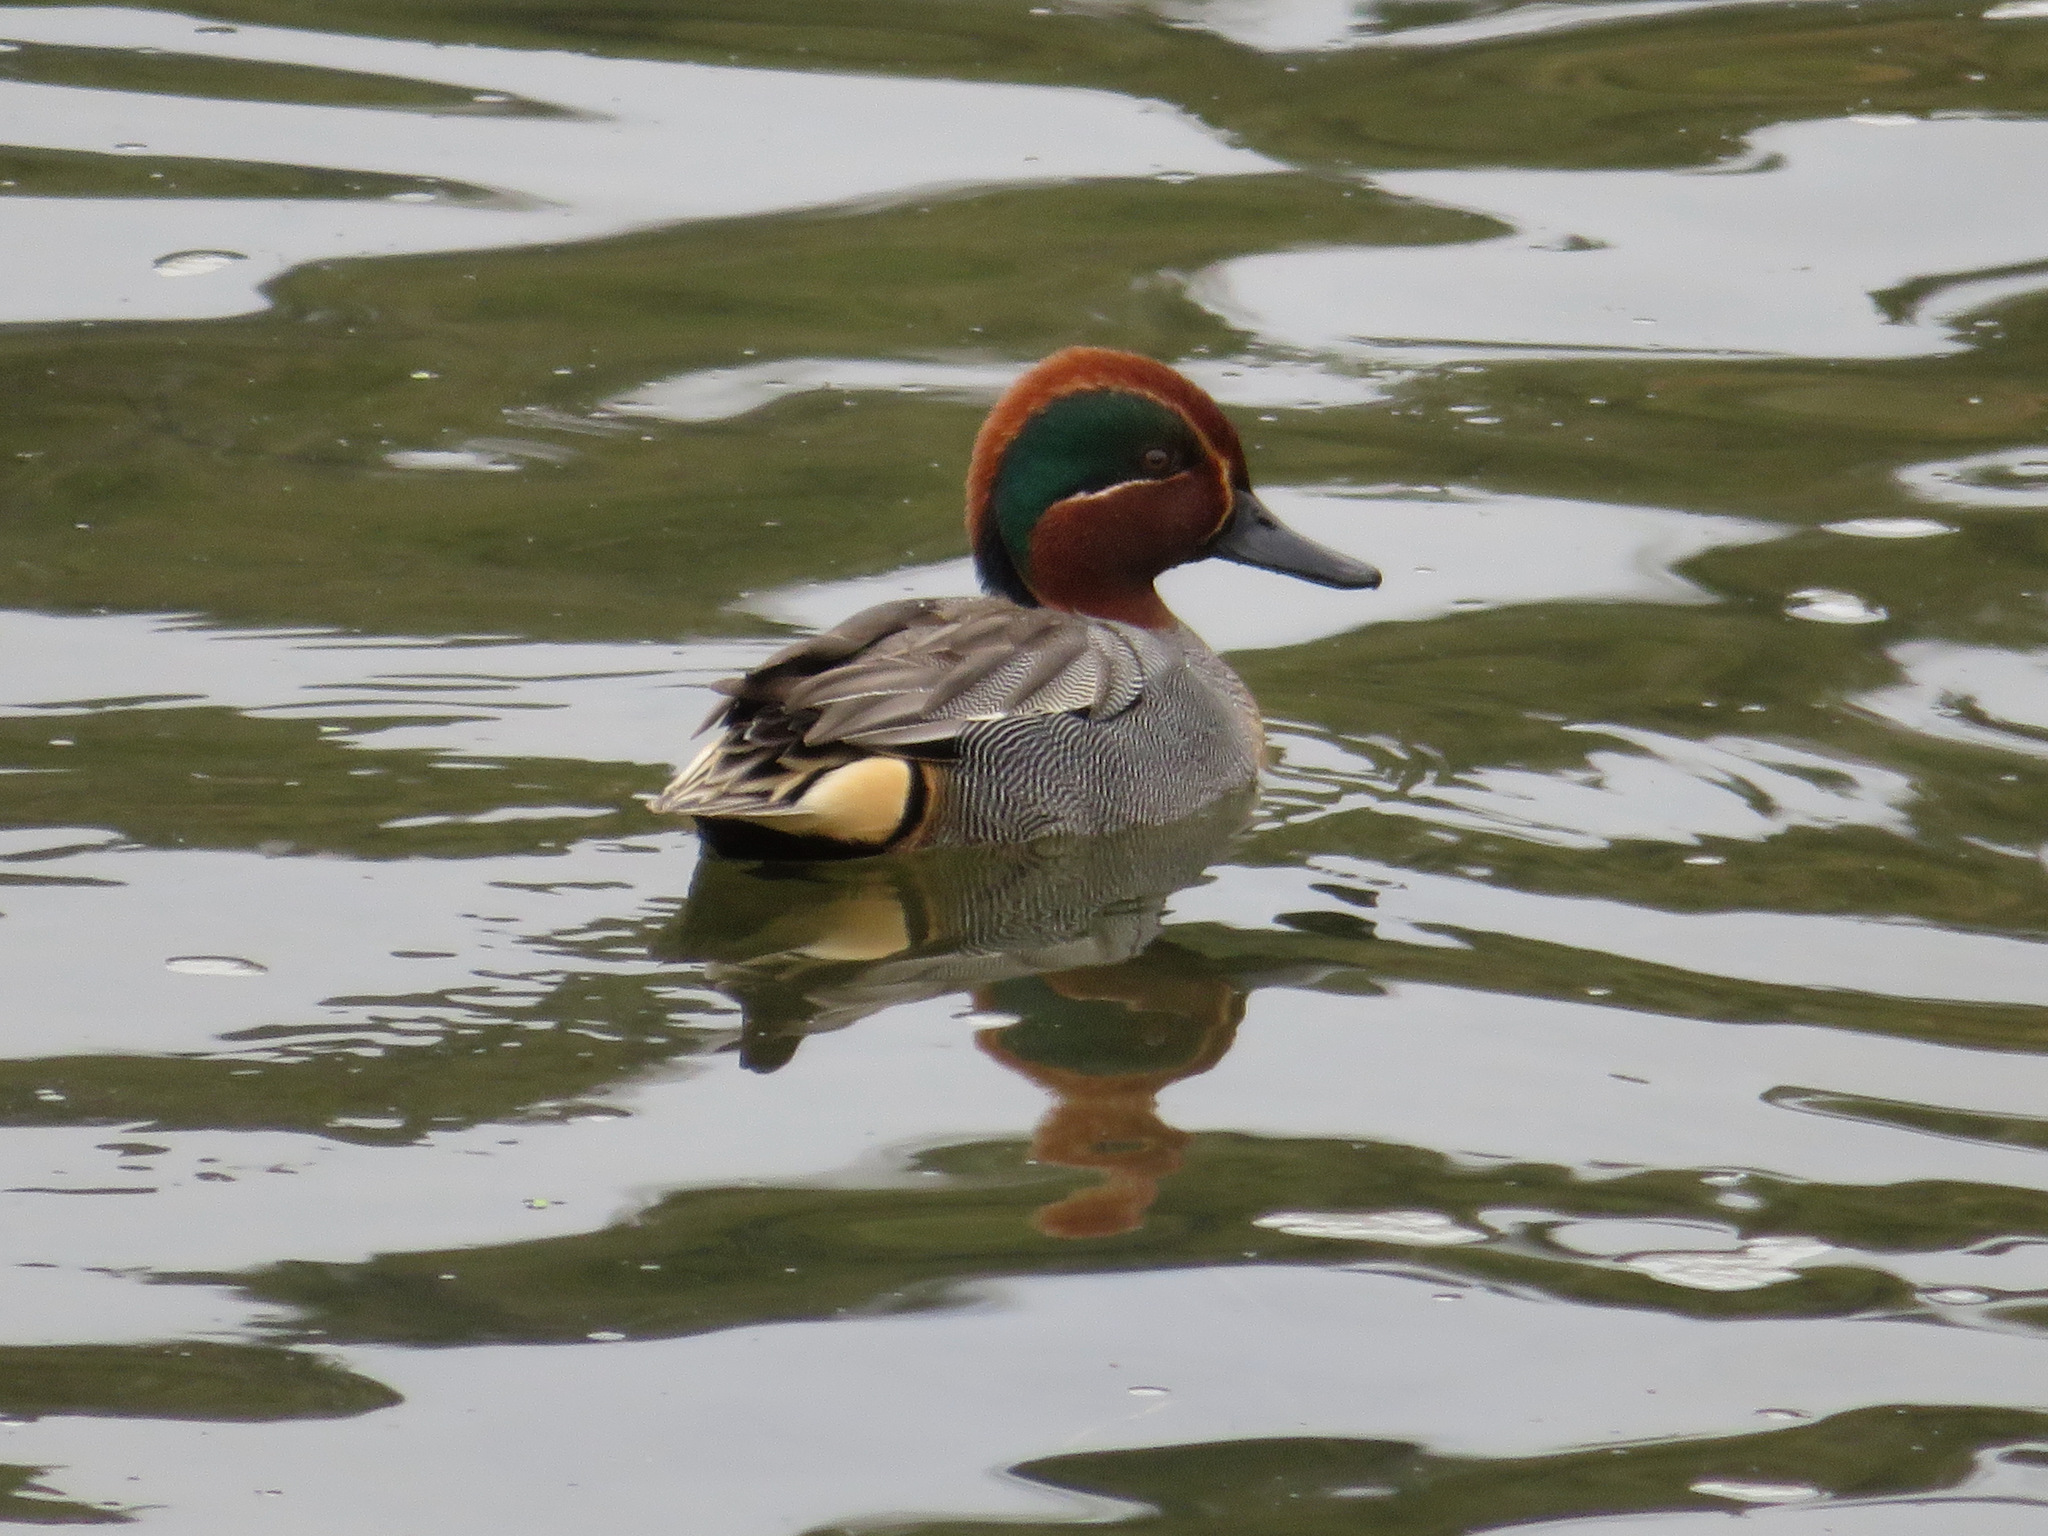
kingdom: Animalia
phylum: Chordata
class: Aves
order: Anseriformes
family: Anatidae
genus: Anas
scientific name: Anas crecca
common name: Eurasian teal
